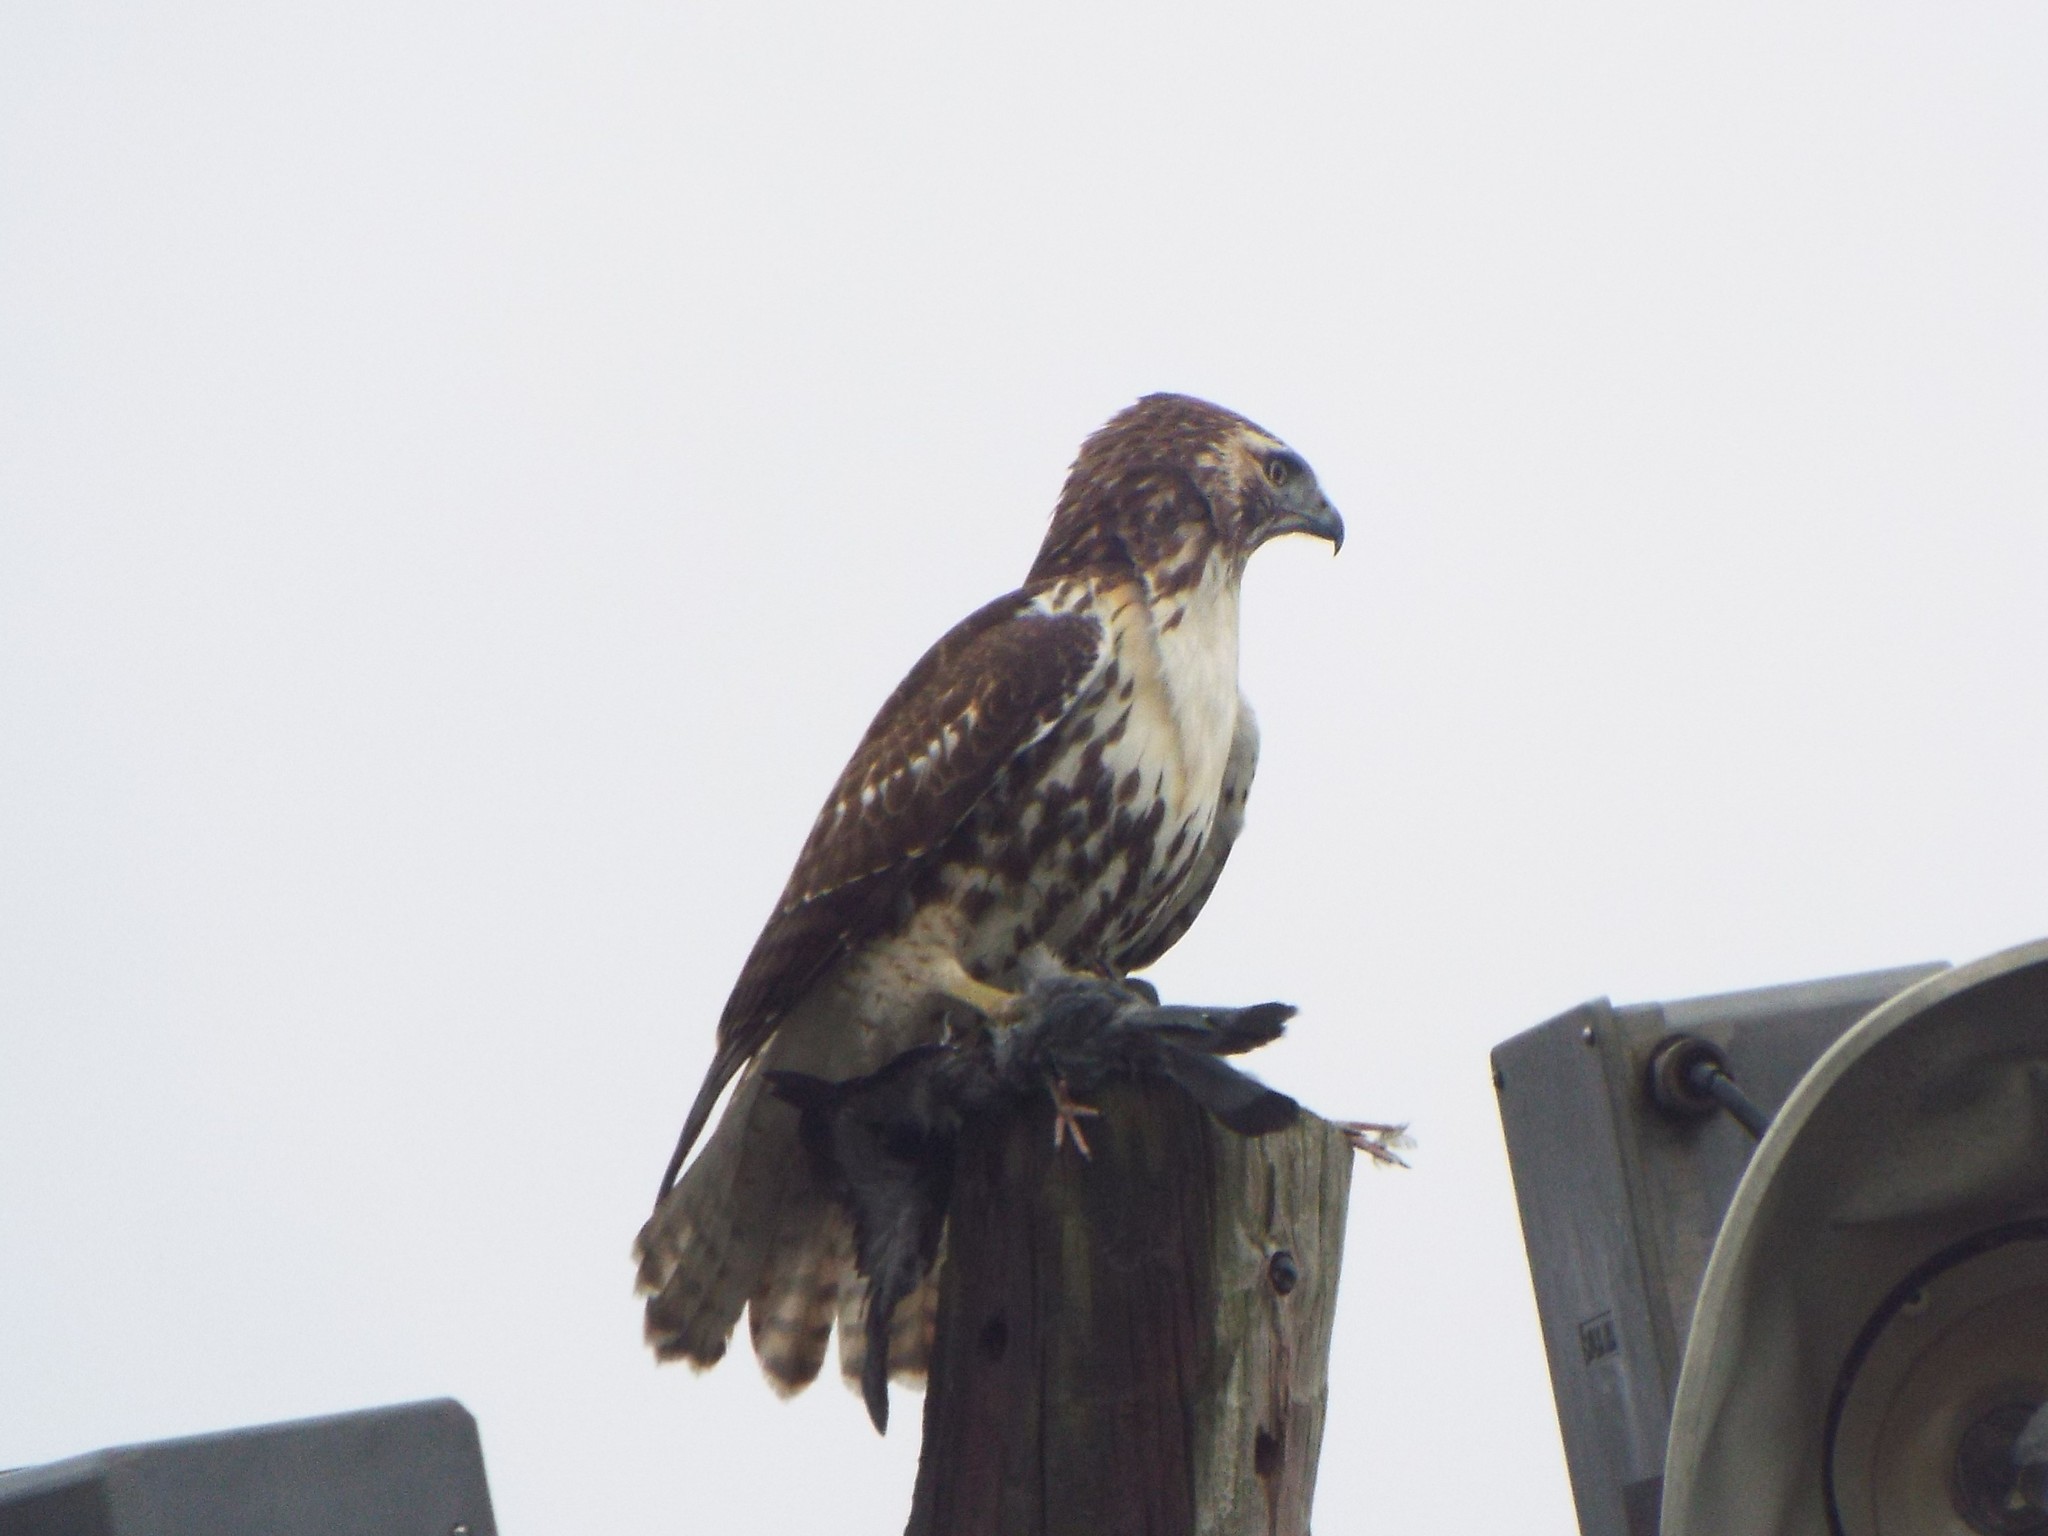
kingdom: Animalia
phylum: Chordata
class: Aves
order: Columbiformes
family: Columbidae
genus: Columba
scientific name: Columba livia
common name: Rock pigeon
